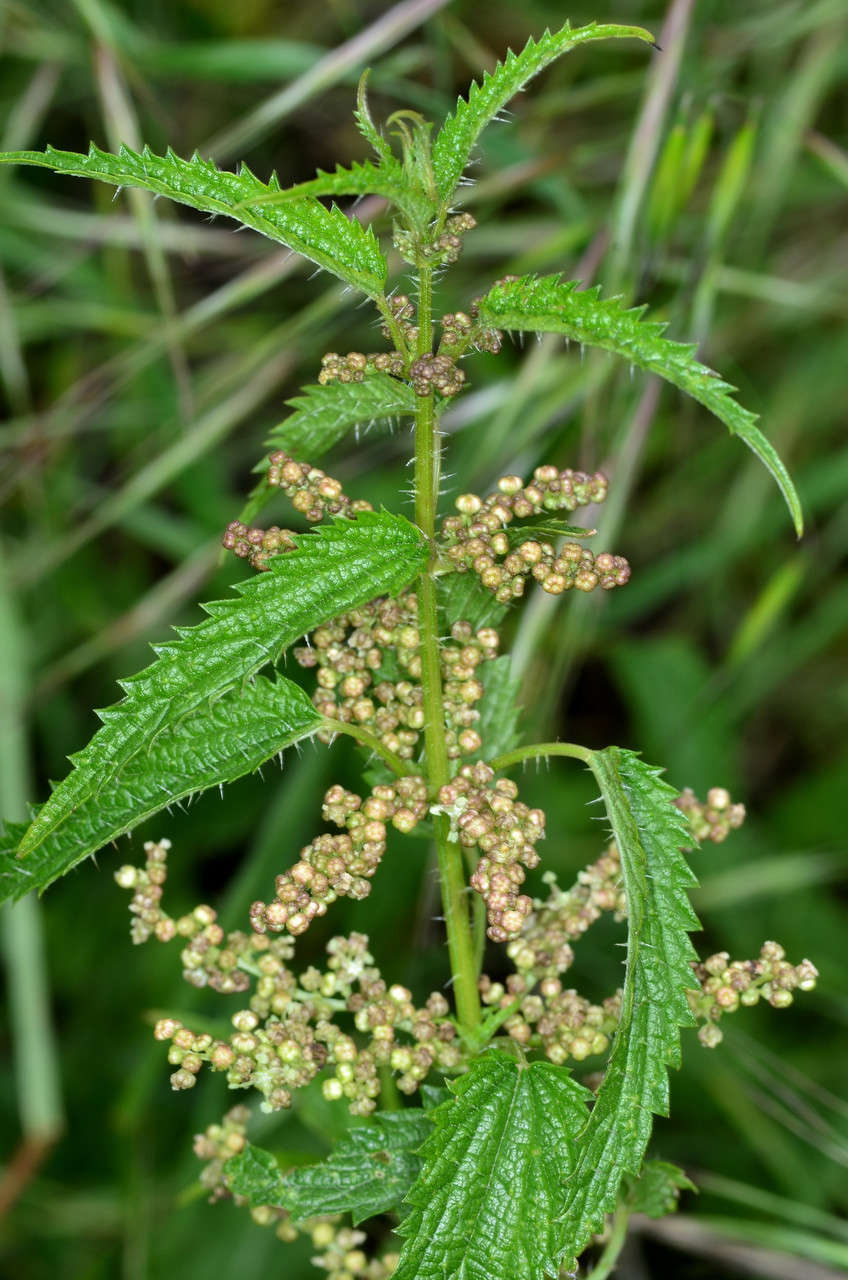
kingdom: Plantae
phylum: Tracheophyta
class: Magnoliopsida
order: Rosales
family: Urticaceae
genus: Urtica
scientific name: Urtica incisa
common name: Scrub nettle
